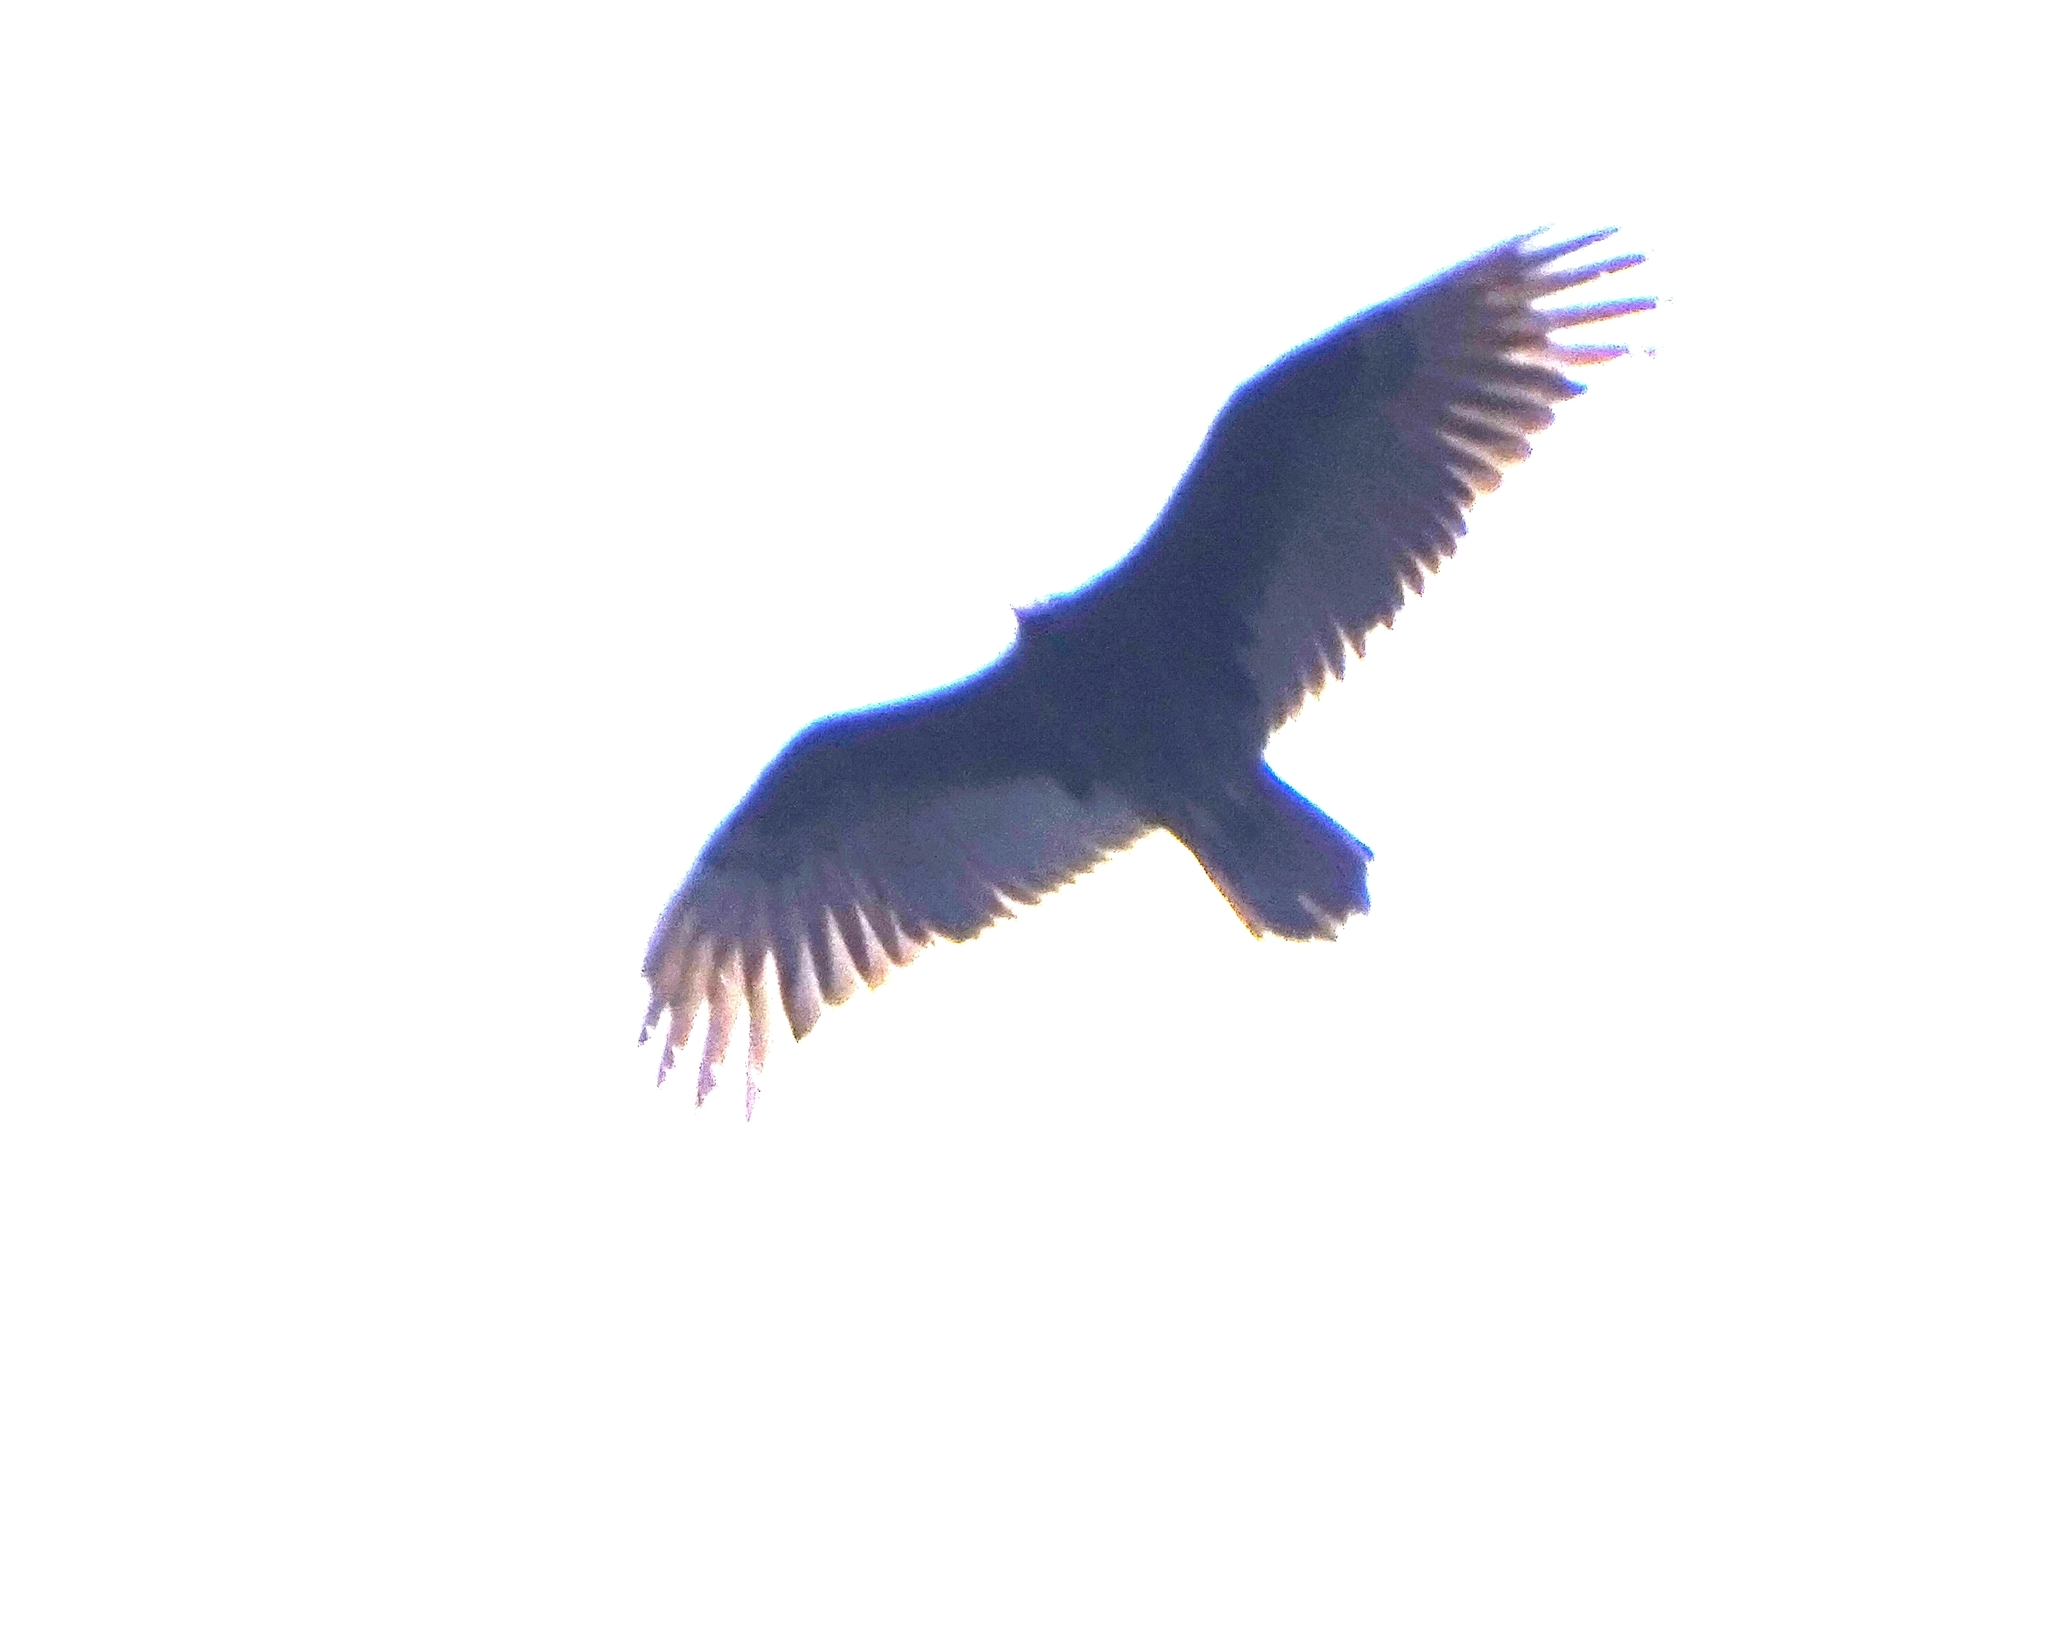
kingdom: Animalia
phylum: Chordata
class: Aves
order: Accipitriformes
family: Cathartidae
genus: Cathartes
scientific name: Cathartes aura
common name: Turkey vulture
